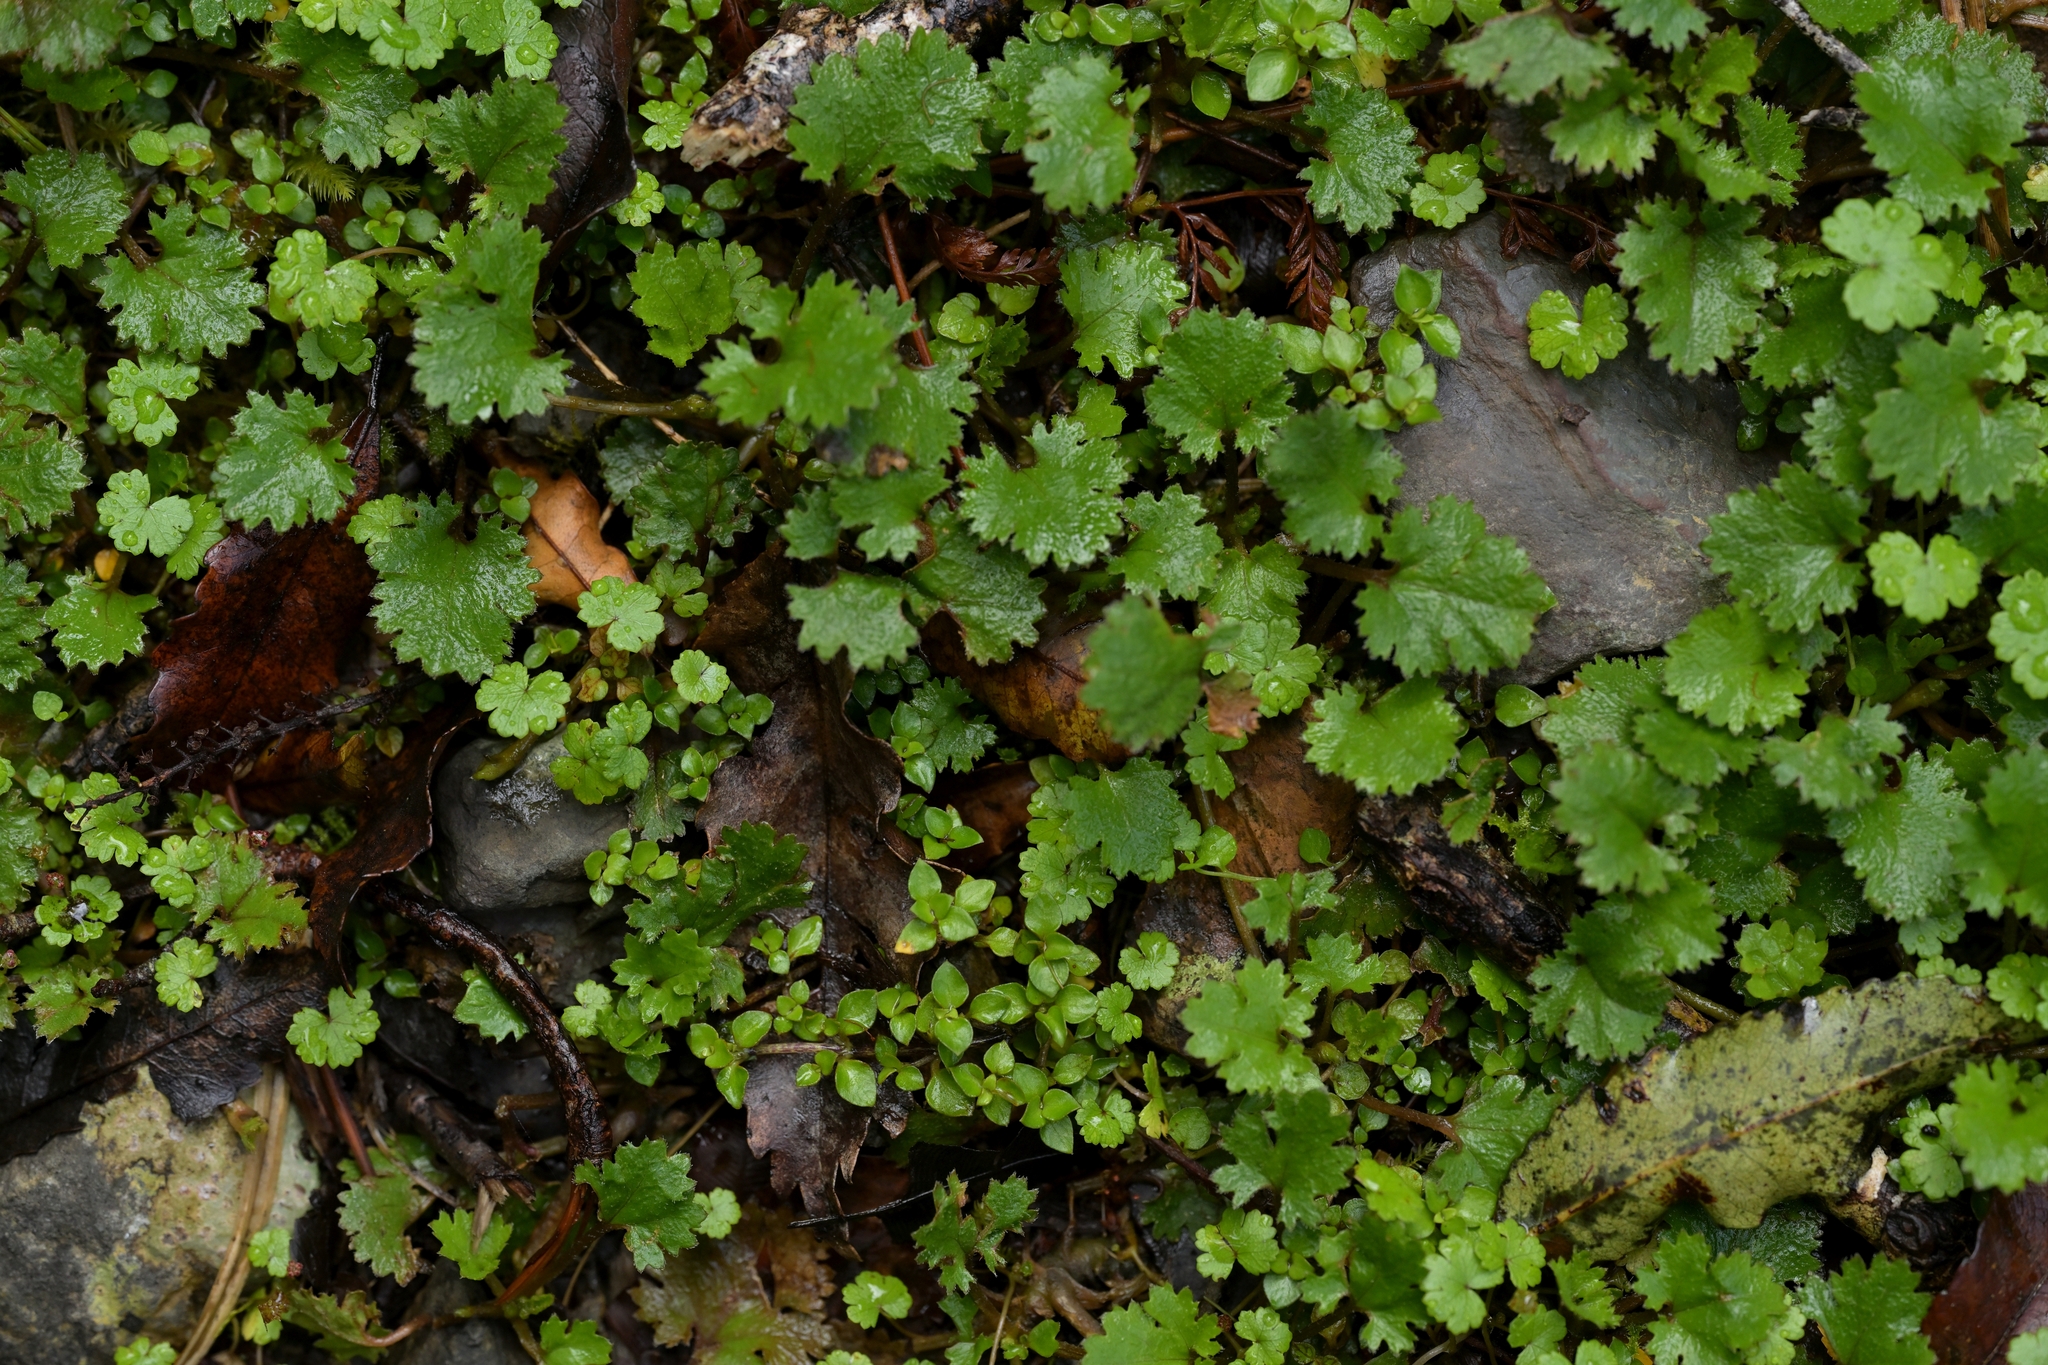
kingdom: Plantae
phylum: Tracheophyta
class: Magnoliopsida
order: Gunnerales
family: Gunneraceae
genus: Gunnera
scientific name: Gunnera monoica
